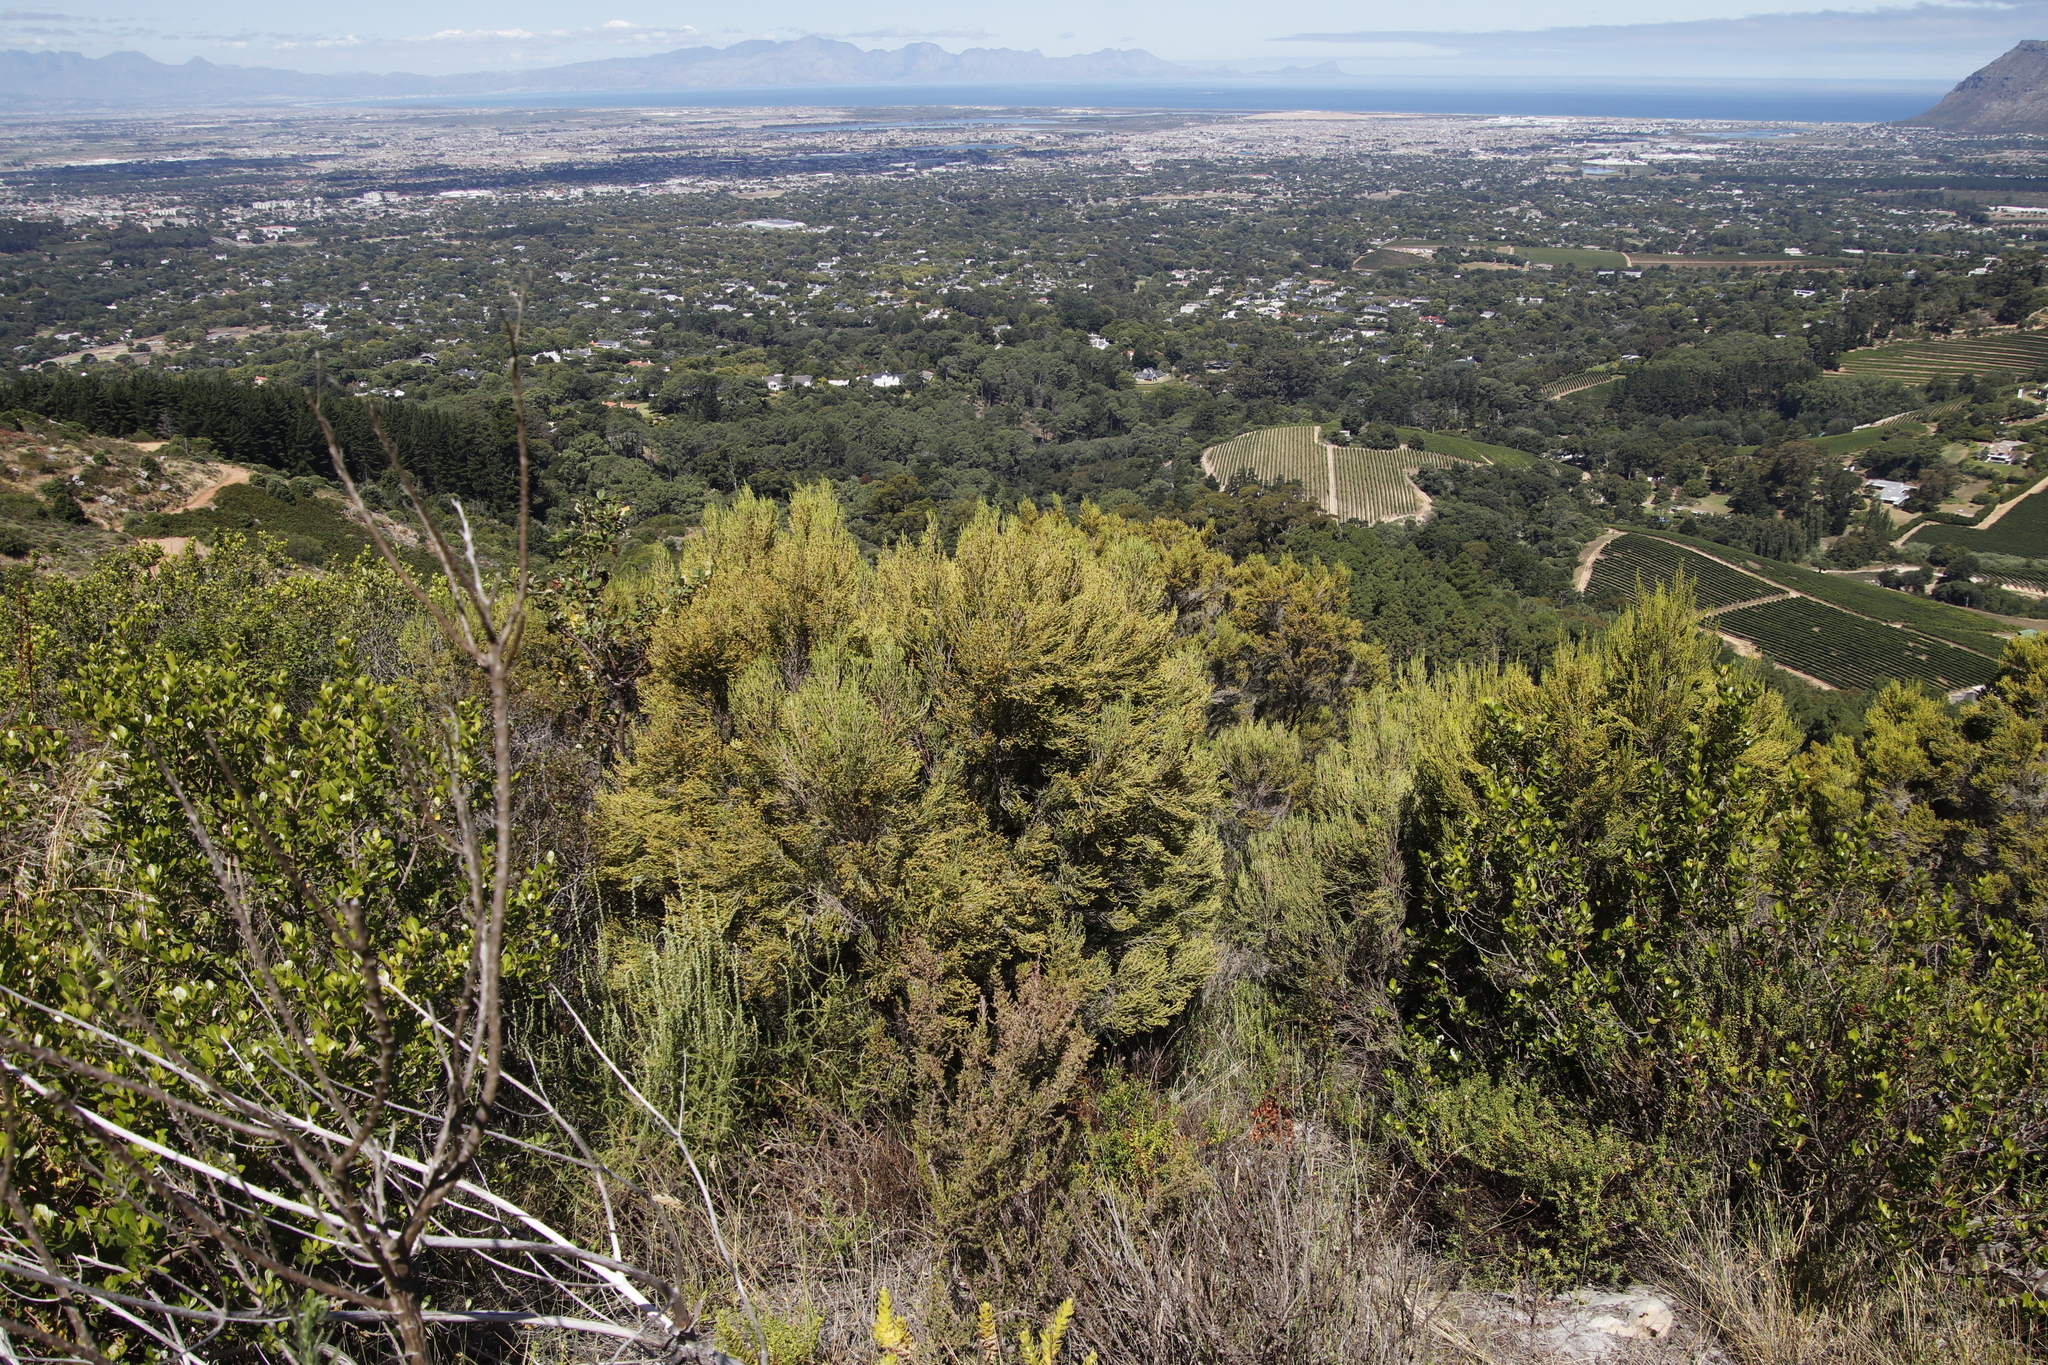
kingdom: Plantae
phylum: Tracheophyta
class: Magnoliopsida
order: Ericales
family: Ericaceae
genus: Erica
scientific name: Erica tristis
